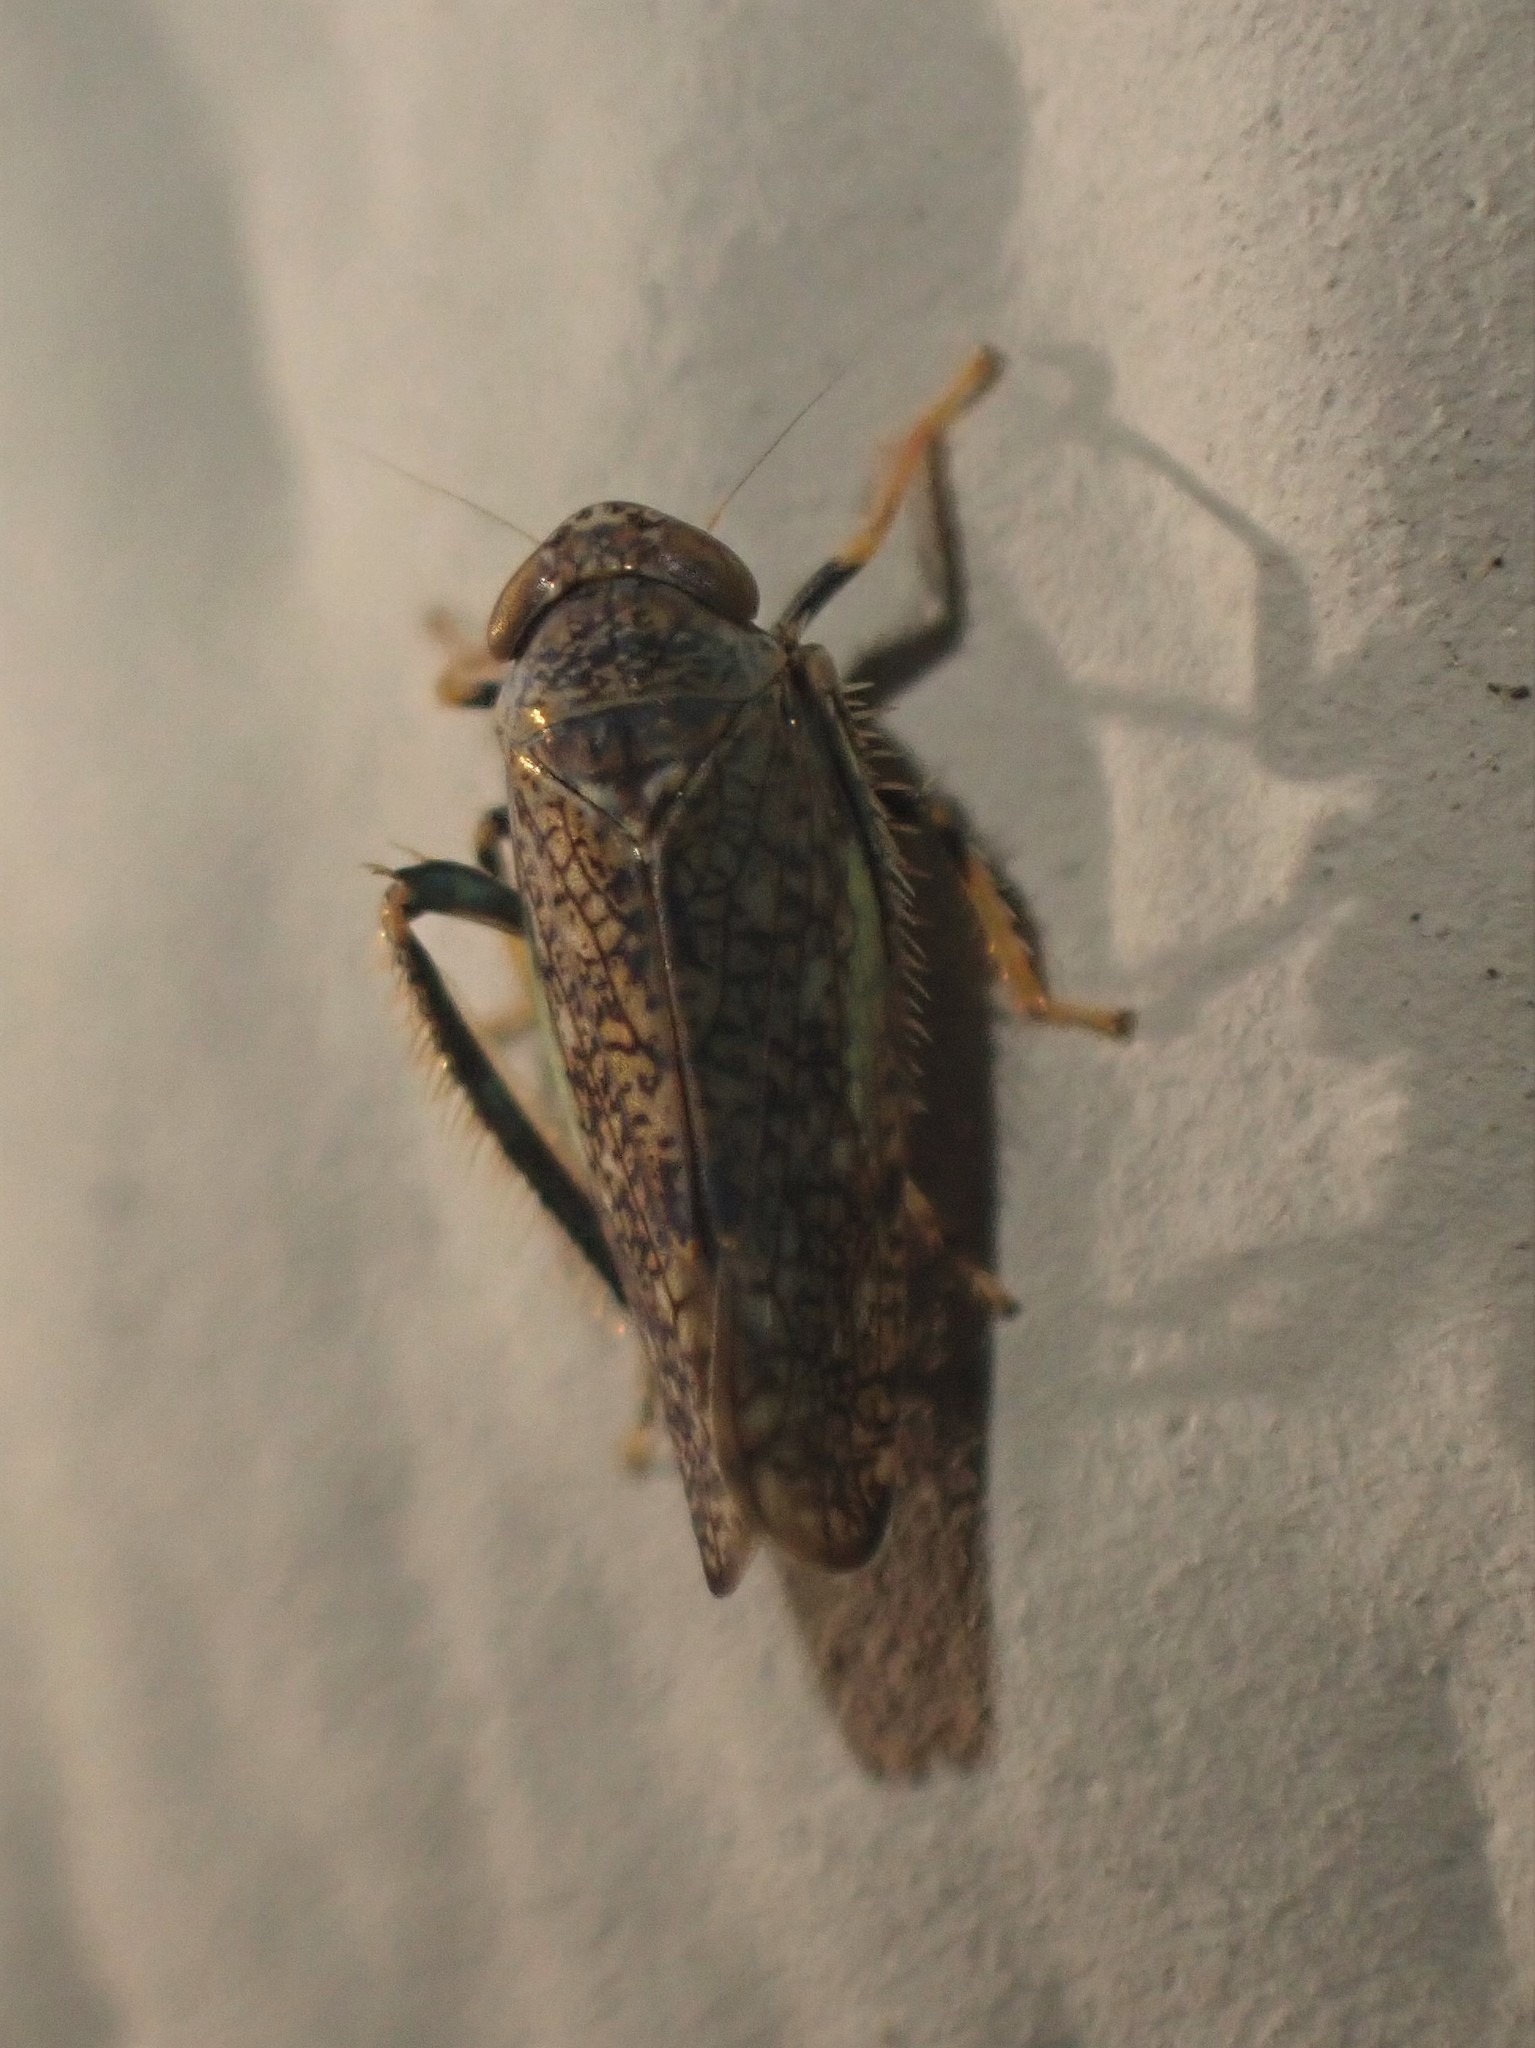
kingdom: Animalia
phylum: Arthropoda
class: Insecta
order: Hemiptera
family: Cicadellidae
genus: Orientus
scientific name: Orientus ishidae
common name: Japanese leafhopper
